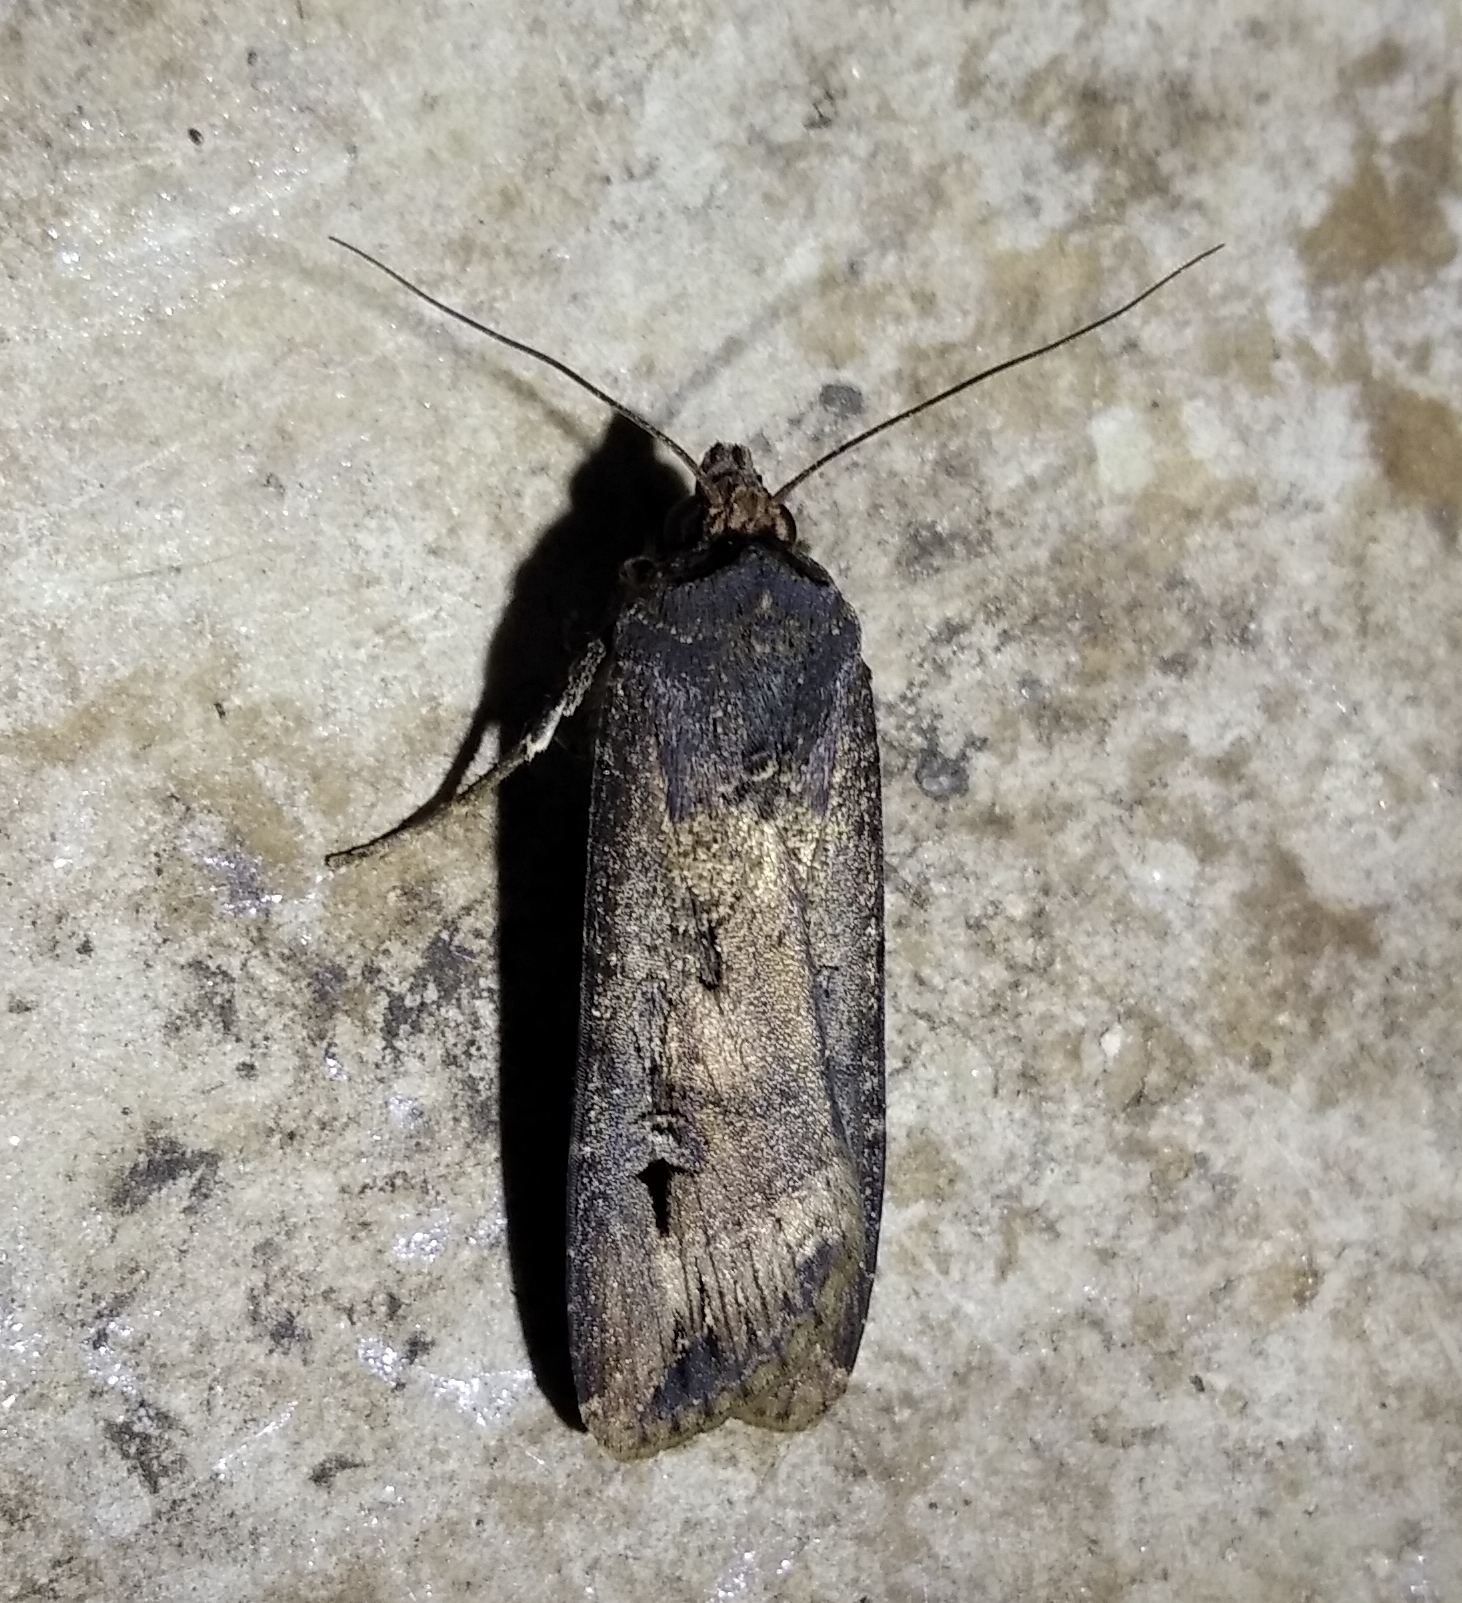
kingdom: Animalia
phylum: Arthropoda
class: Insecta
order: Lepidoptera
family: Noctuidae
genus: Agrotis
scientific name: Agrotis ipsilon
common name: Dark sword-grass
